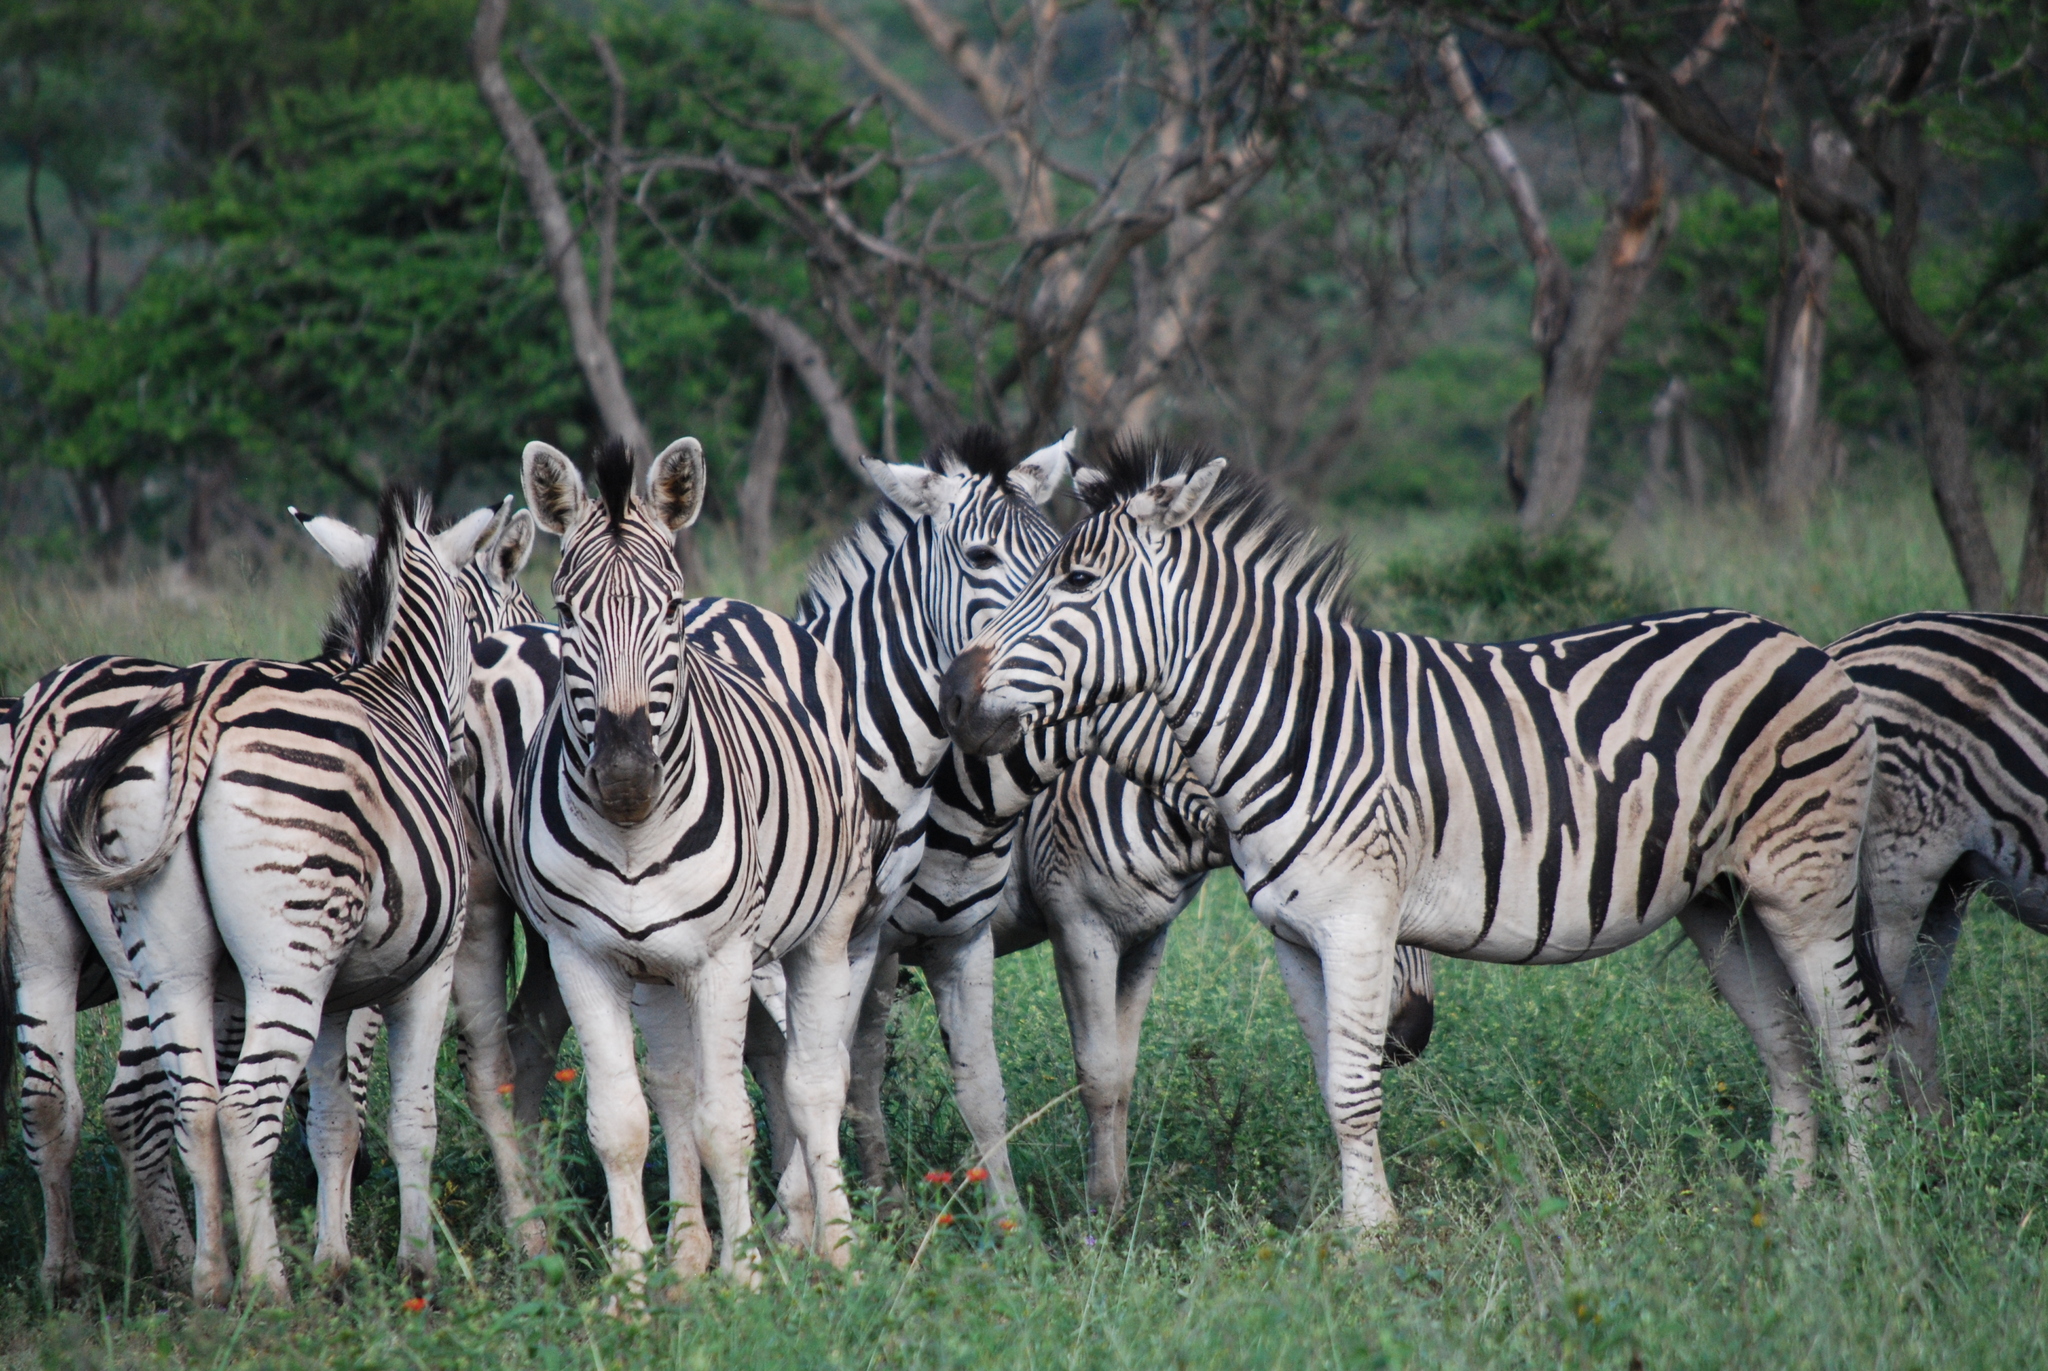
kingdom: Animalia
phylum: Chordata
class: Mammalia
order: Perissodactyla
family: Equidae
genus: Equus
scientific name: Equus quagga
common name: Plains zebra
